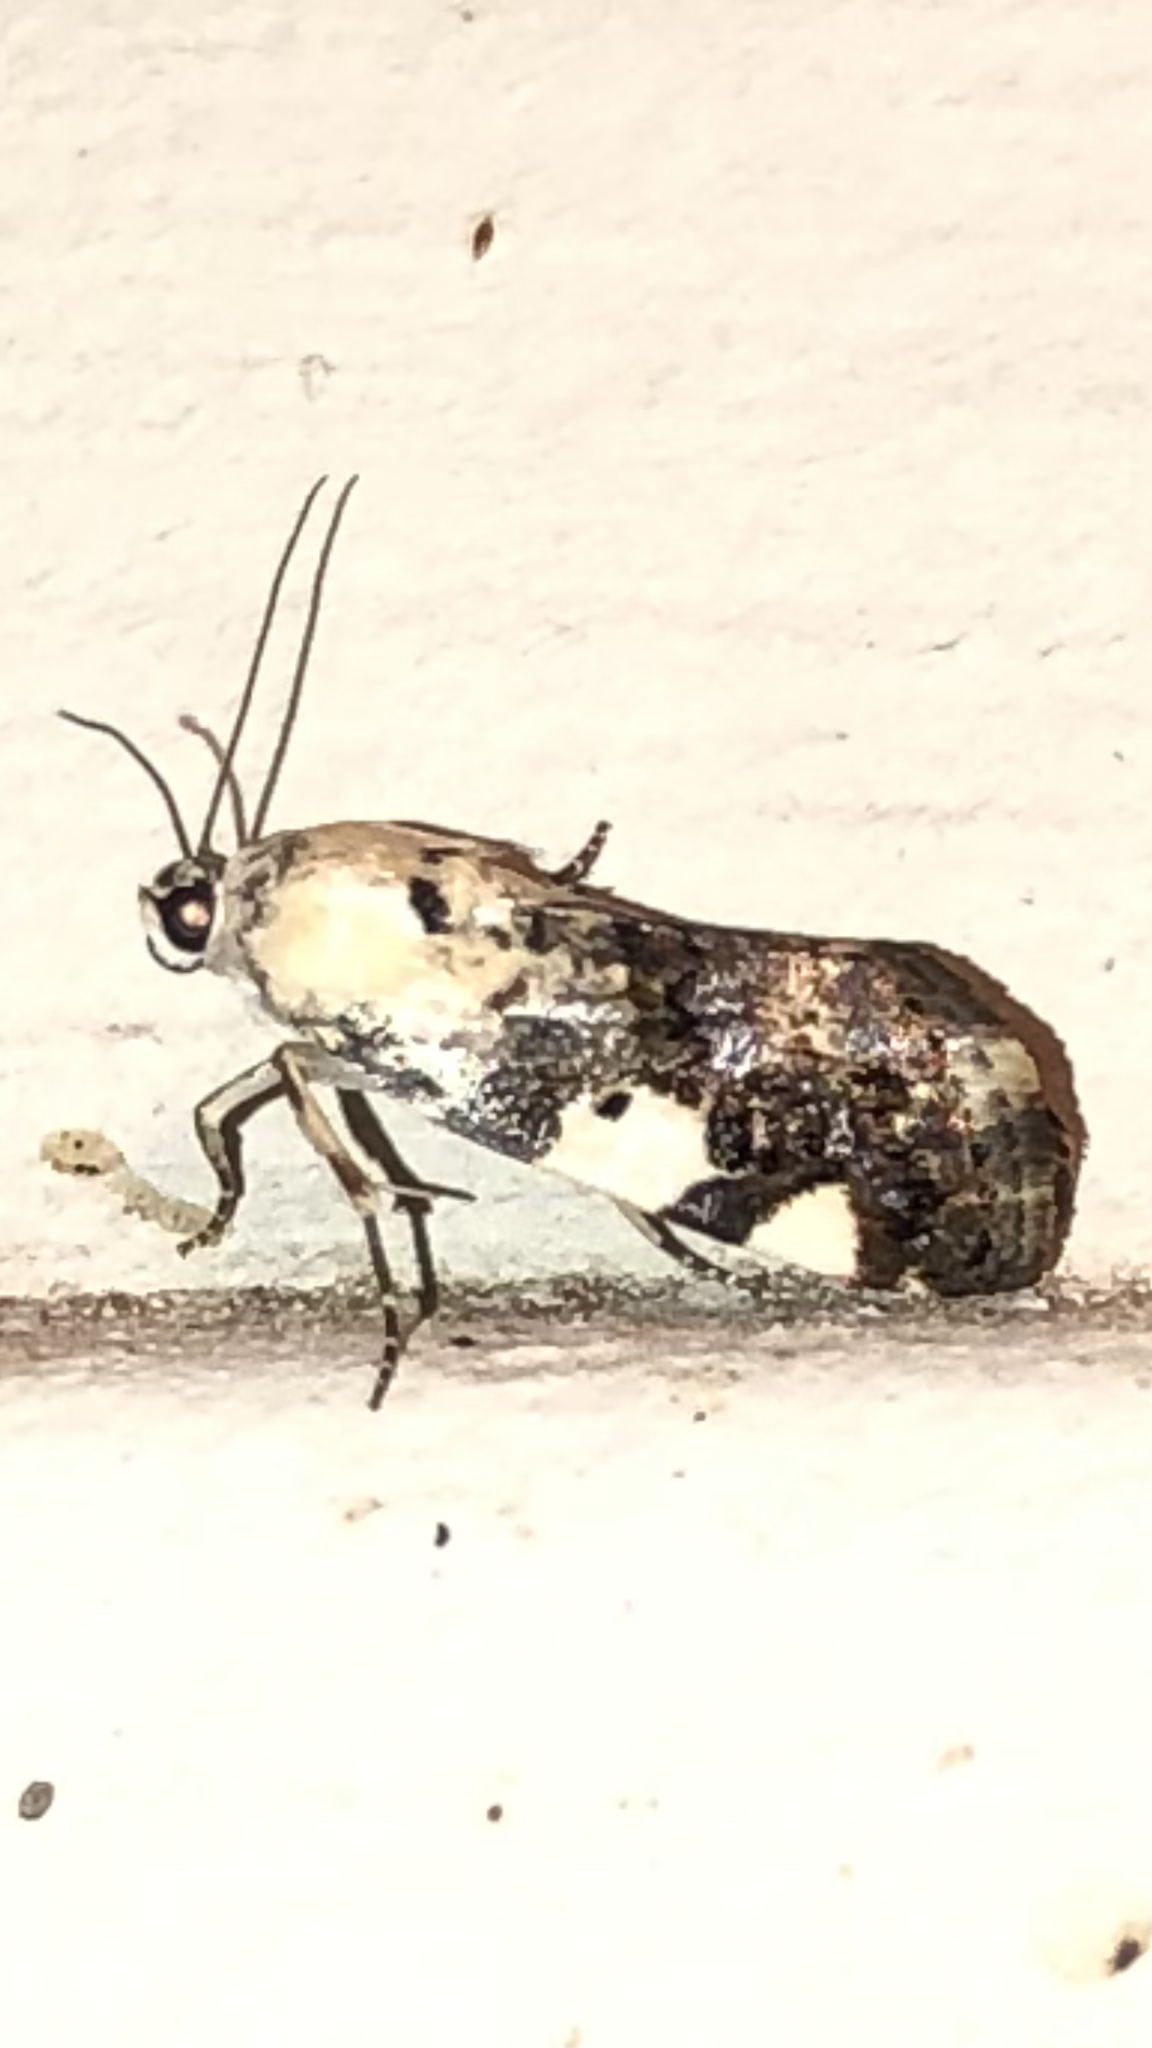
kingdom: Animalia
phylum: Arthropoda
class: Insecta
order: Lepidoptera
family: Noctuidae
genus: Acontia
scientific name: Acontia aprica
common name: Nun
